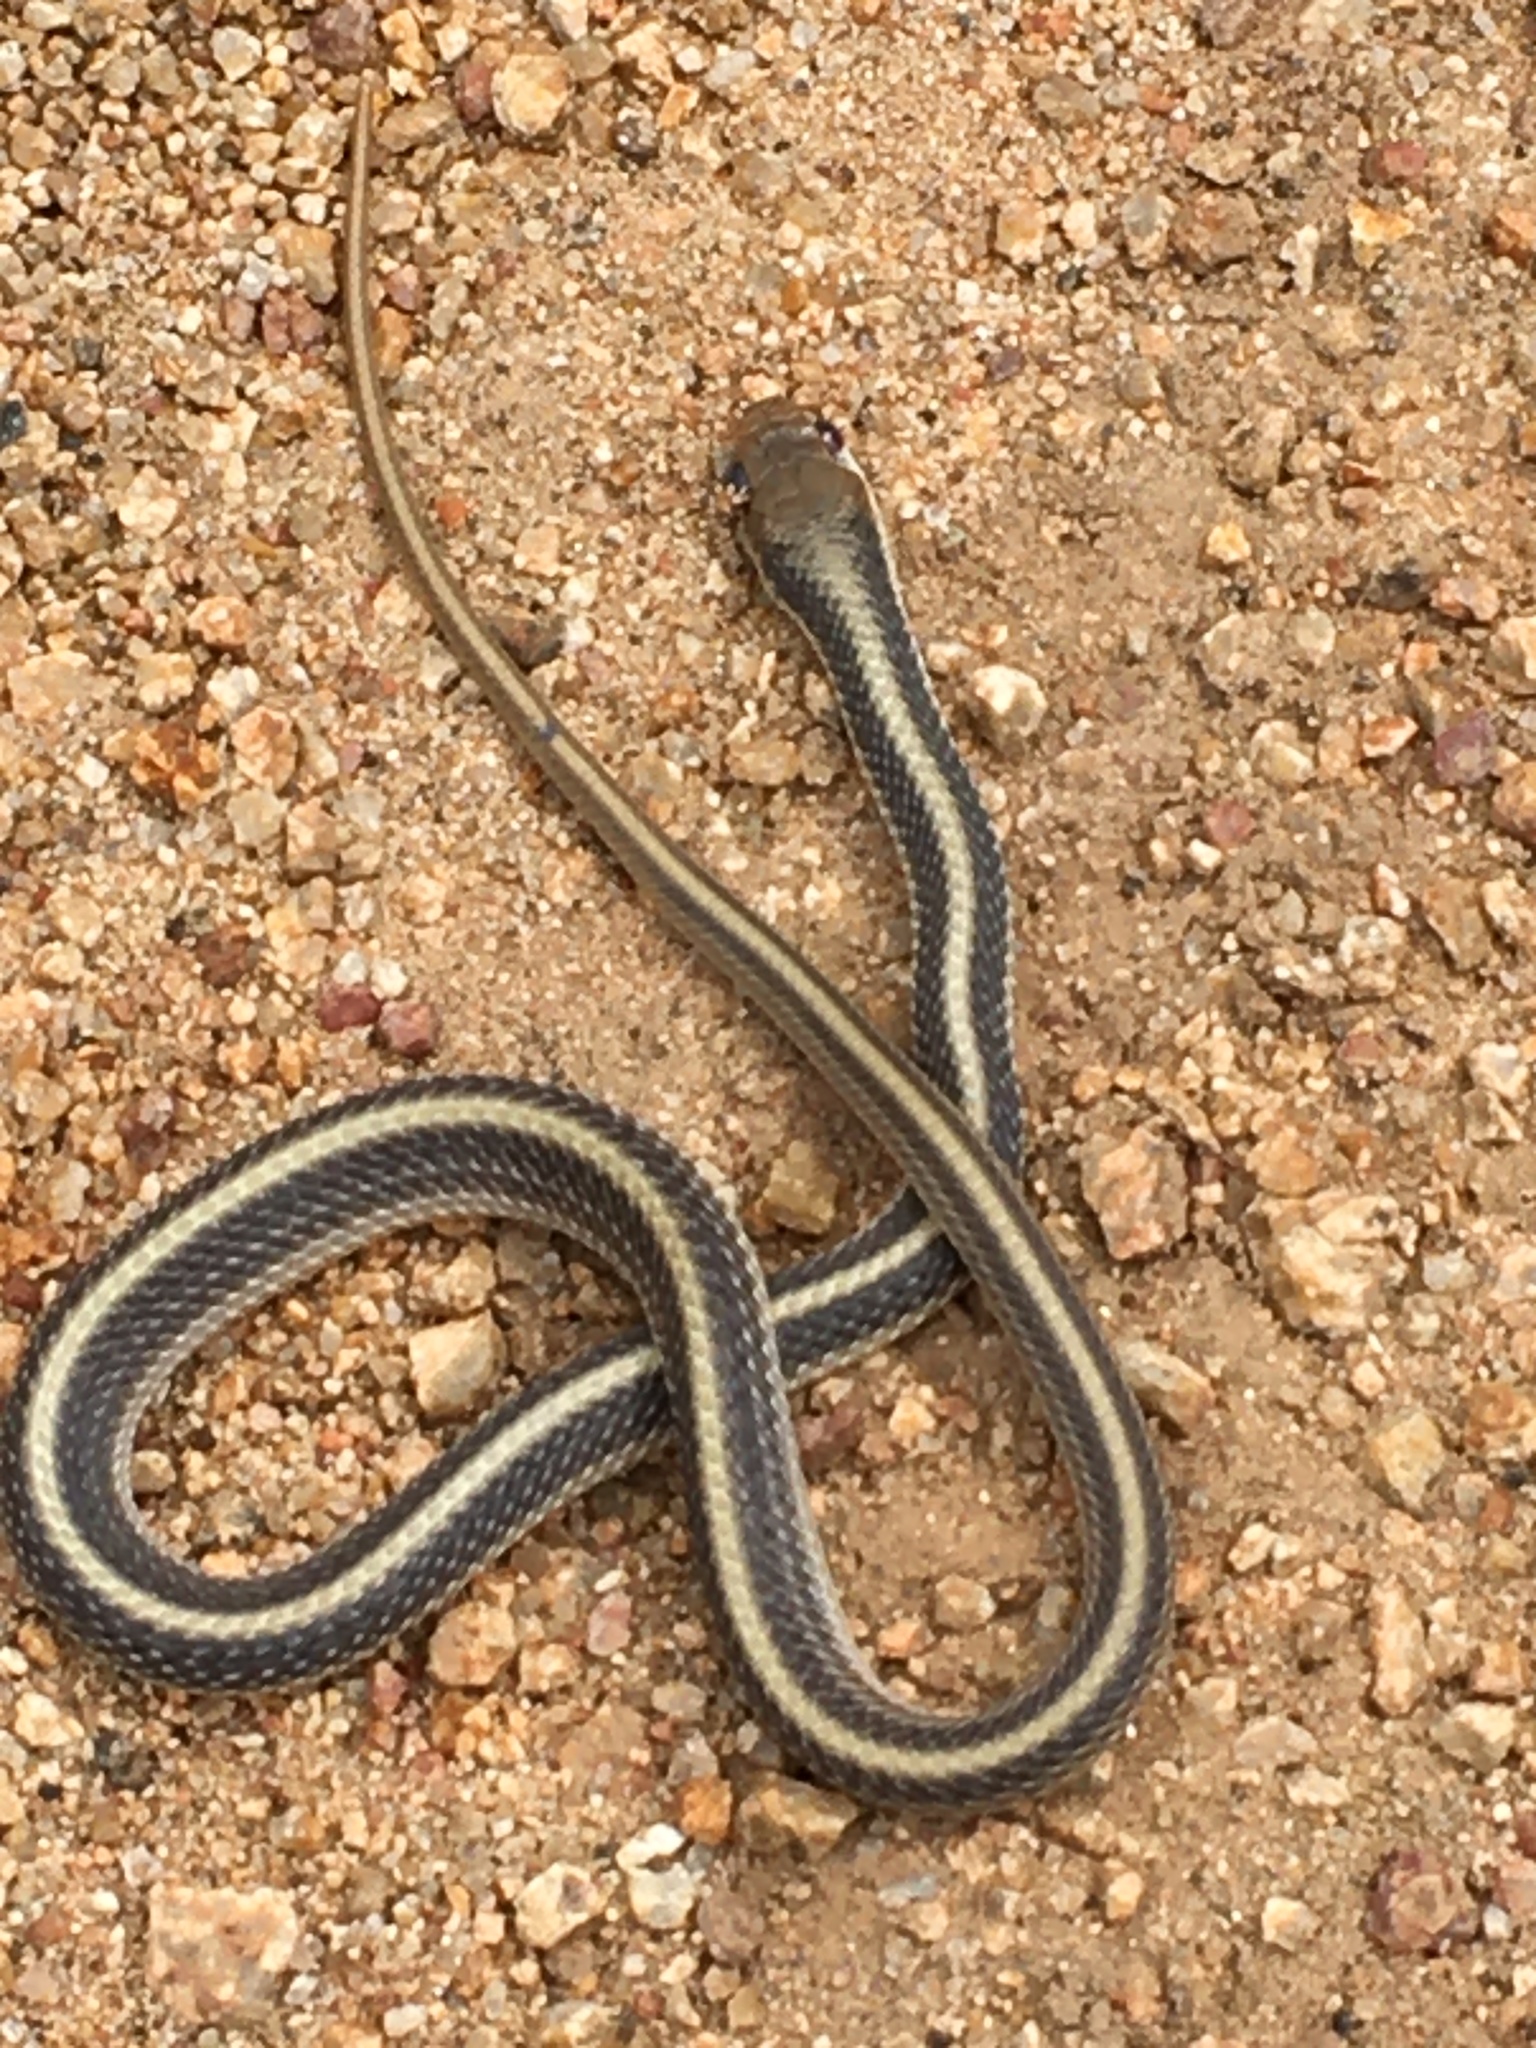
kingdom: Animalia
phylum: Chordata
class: Squamata
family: Colubridae
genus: Salvadora
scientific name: Salvadora hexalepis
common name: Western patchnose snake
